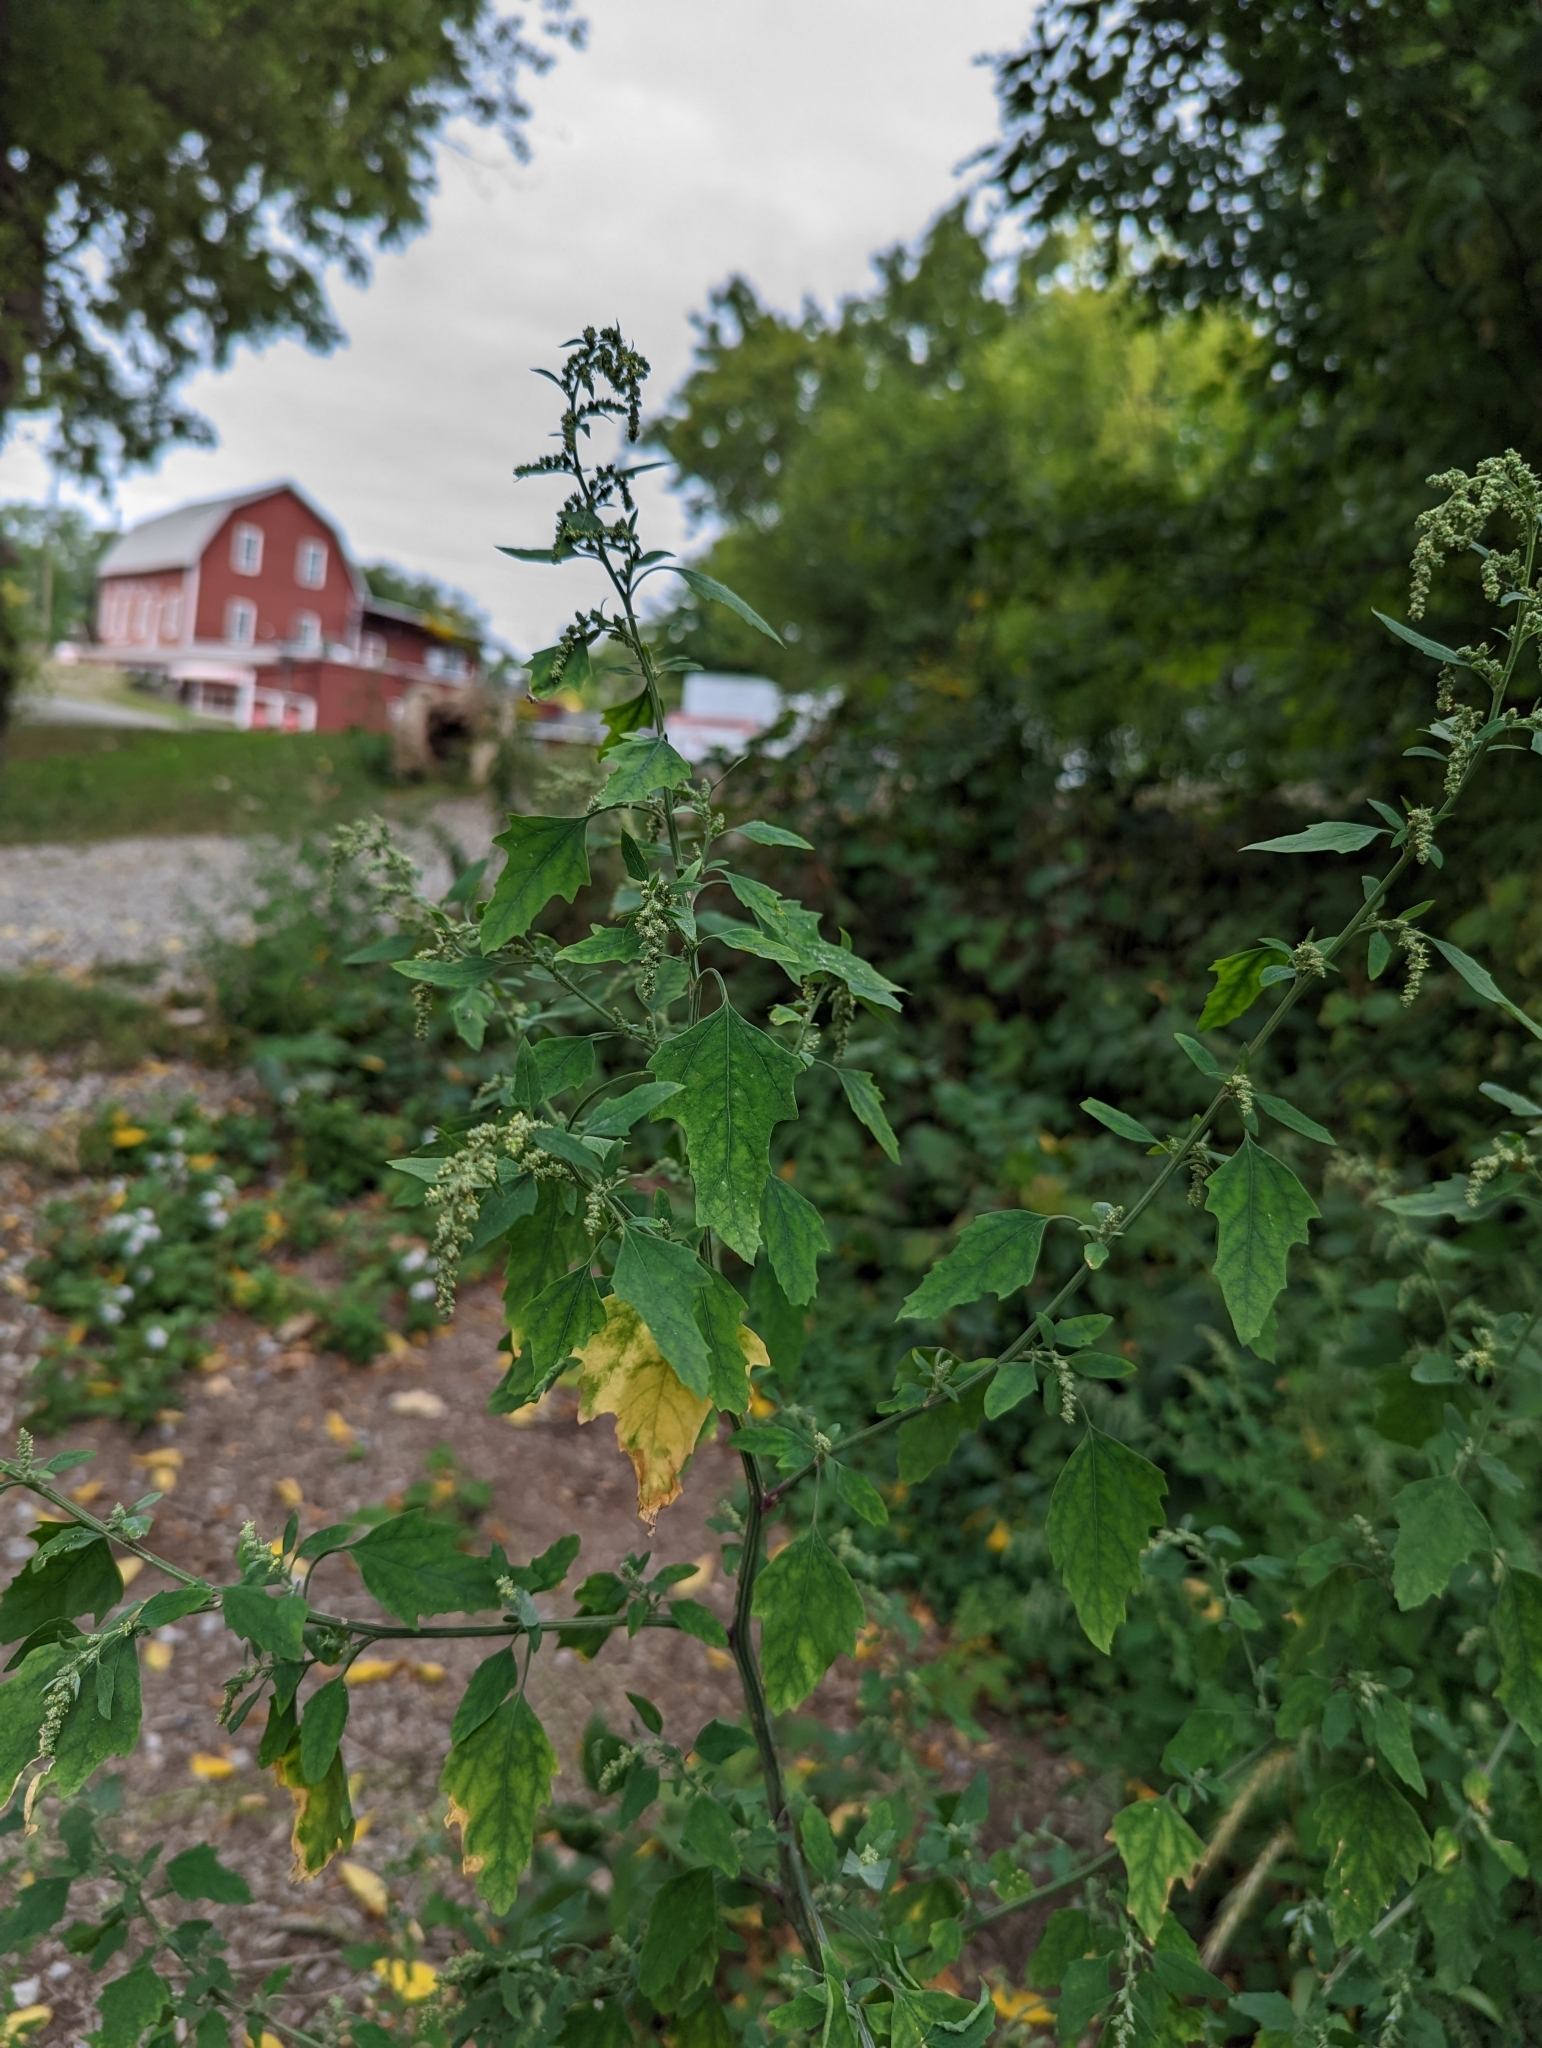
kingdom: Plantae
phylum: Tracheophyta
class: Magnoliopsida
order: Caryophyllales
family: Amaranthaceae
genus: Chenopodium
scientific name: Chenopodium album
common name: Fat-hen
